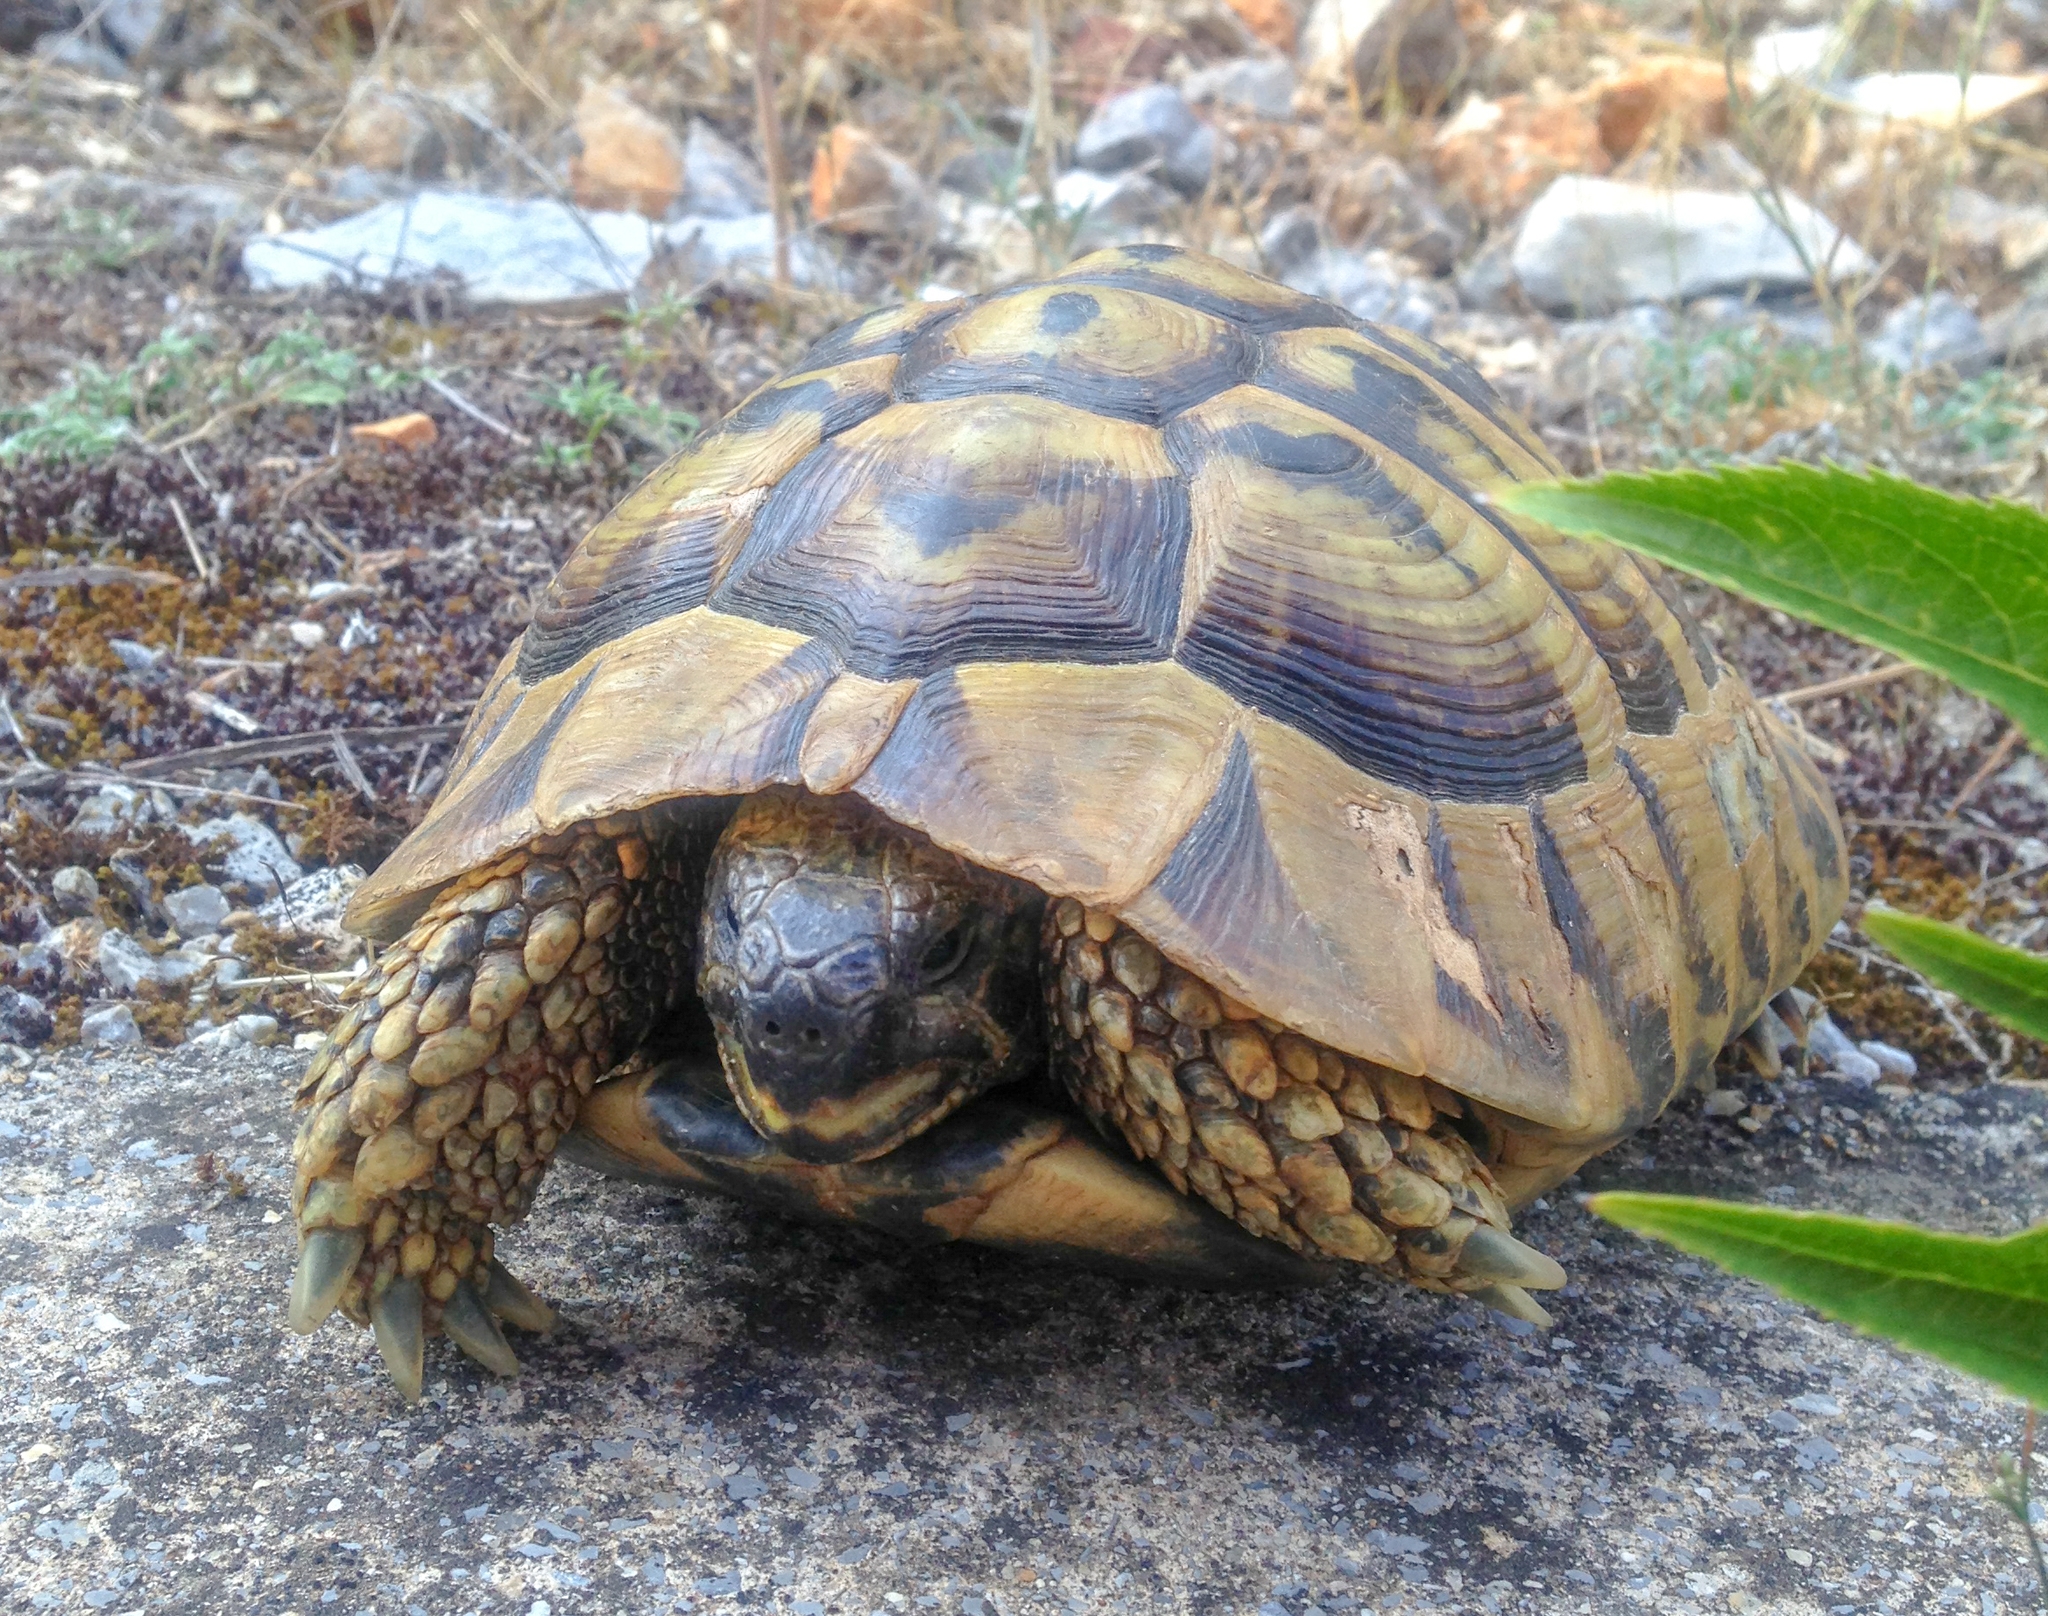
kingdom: Animalia
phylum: Chordata
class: Testudines
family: Testudinidae
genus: Testudo
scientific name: Testudo hermanni
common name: Hermann's tortoise
